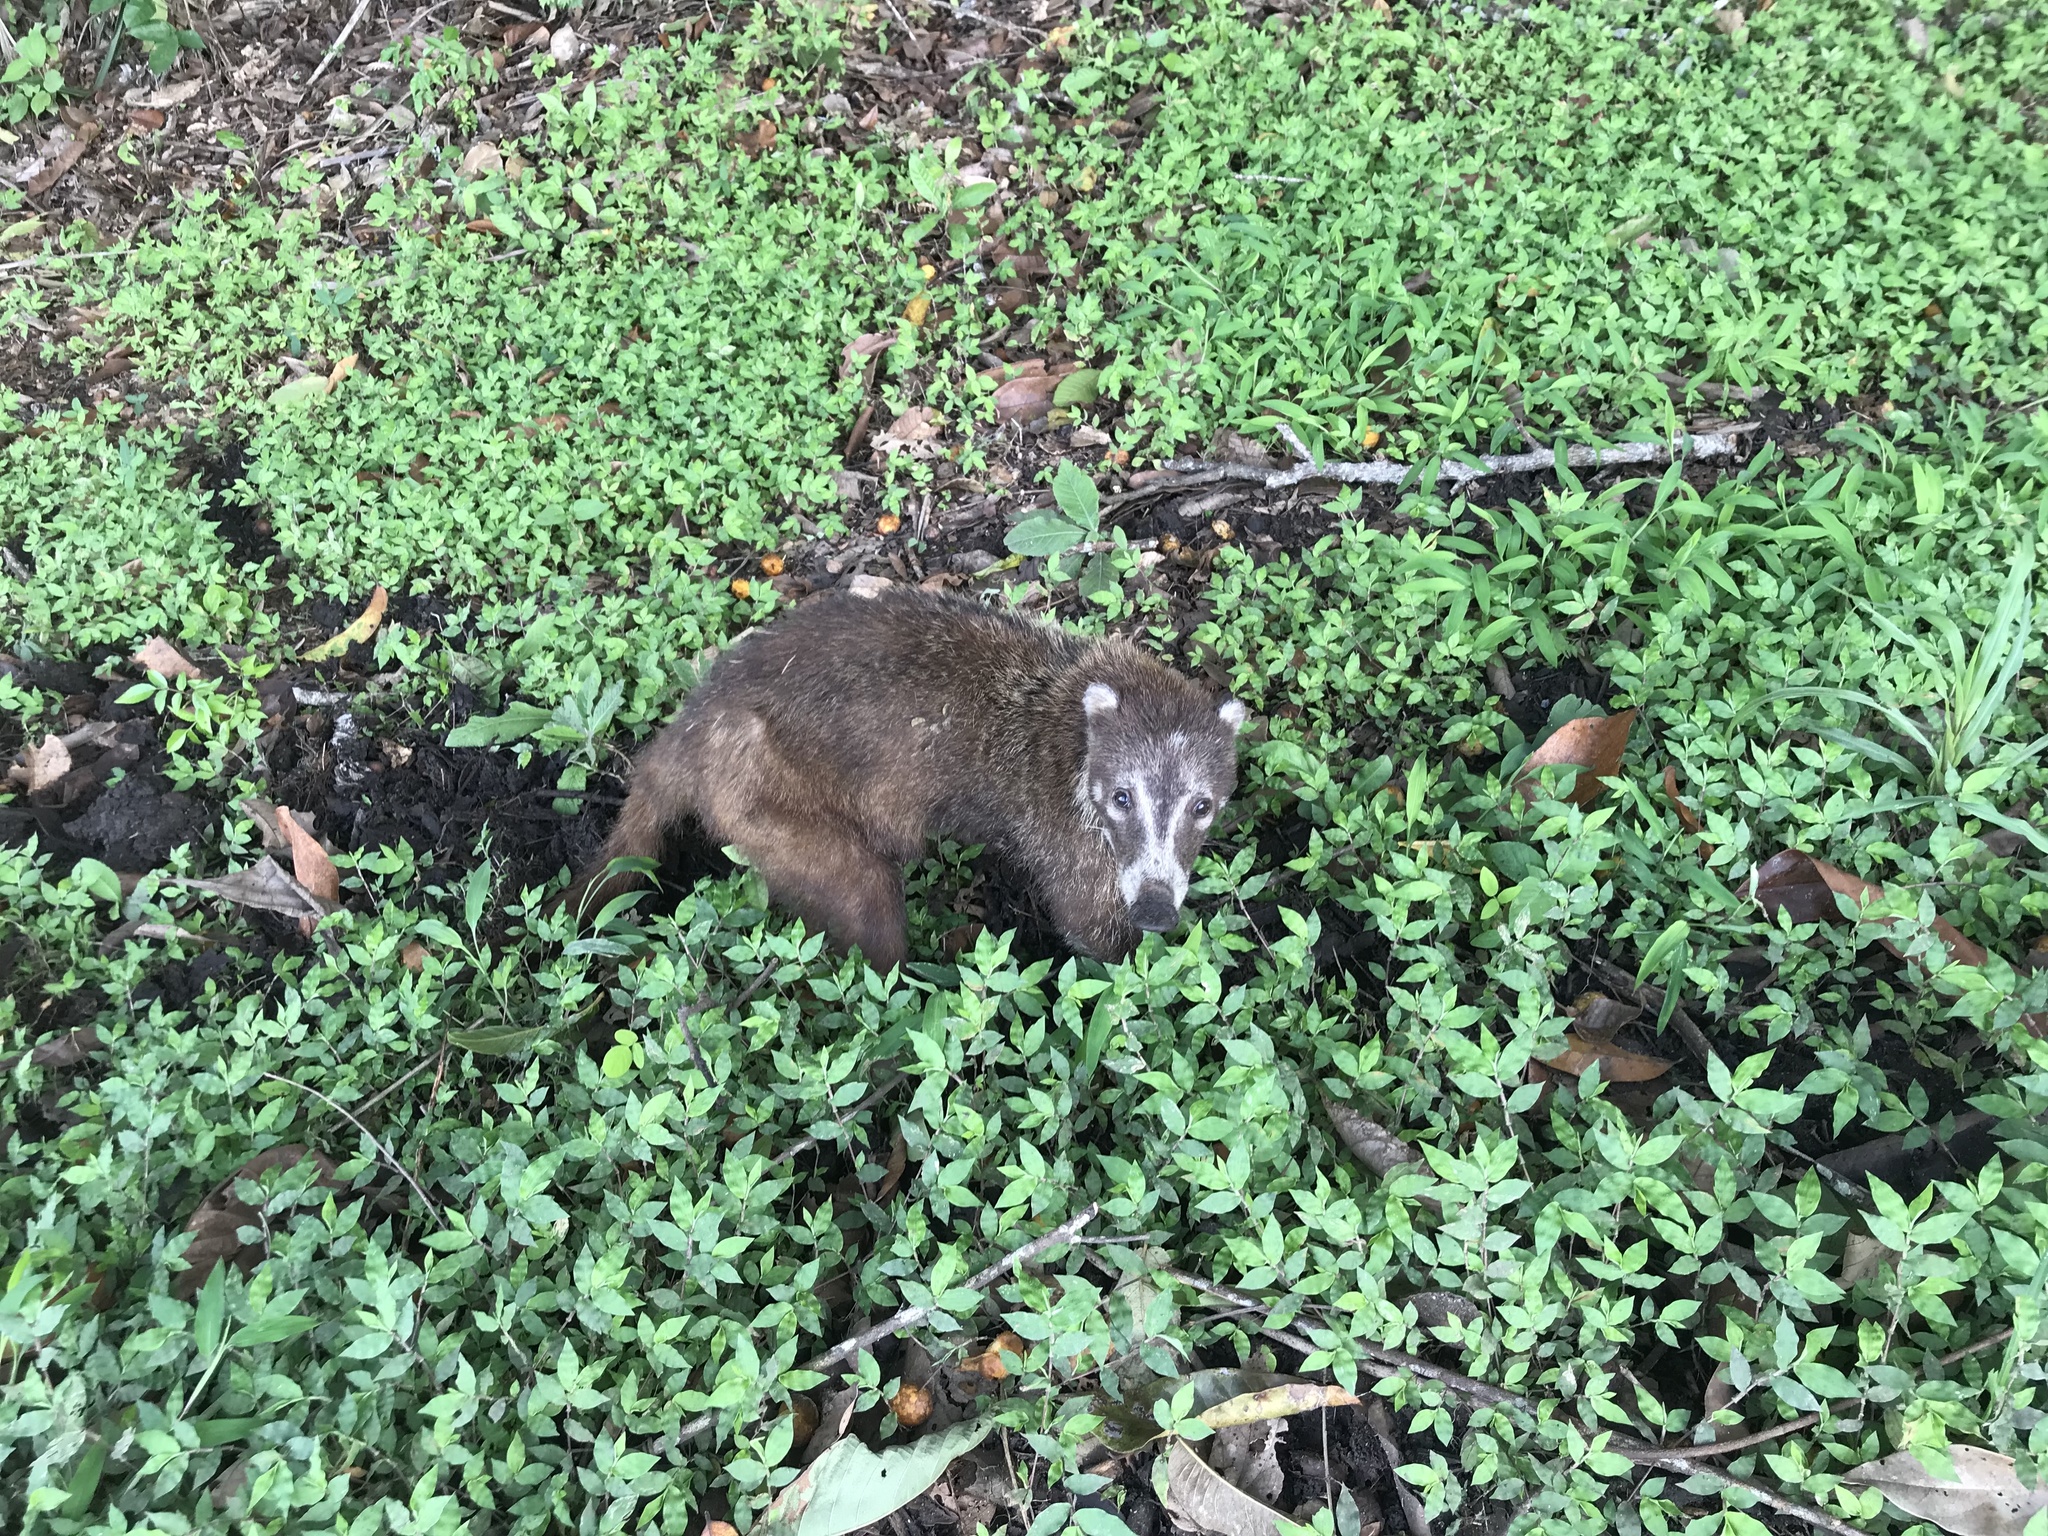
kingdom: Animalia
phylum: Chordata
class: Mammalia
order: Carnivora
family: Procyonidae
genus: Nasua
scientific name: Nasua narica
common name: White-nosed coati
